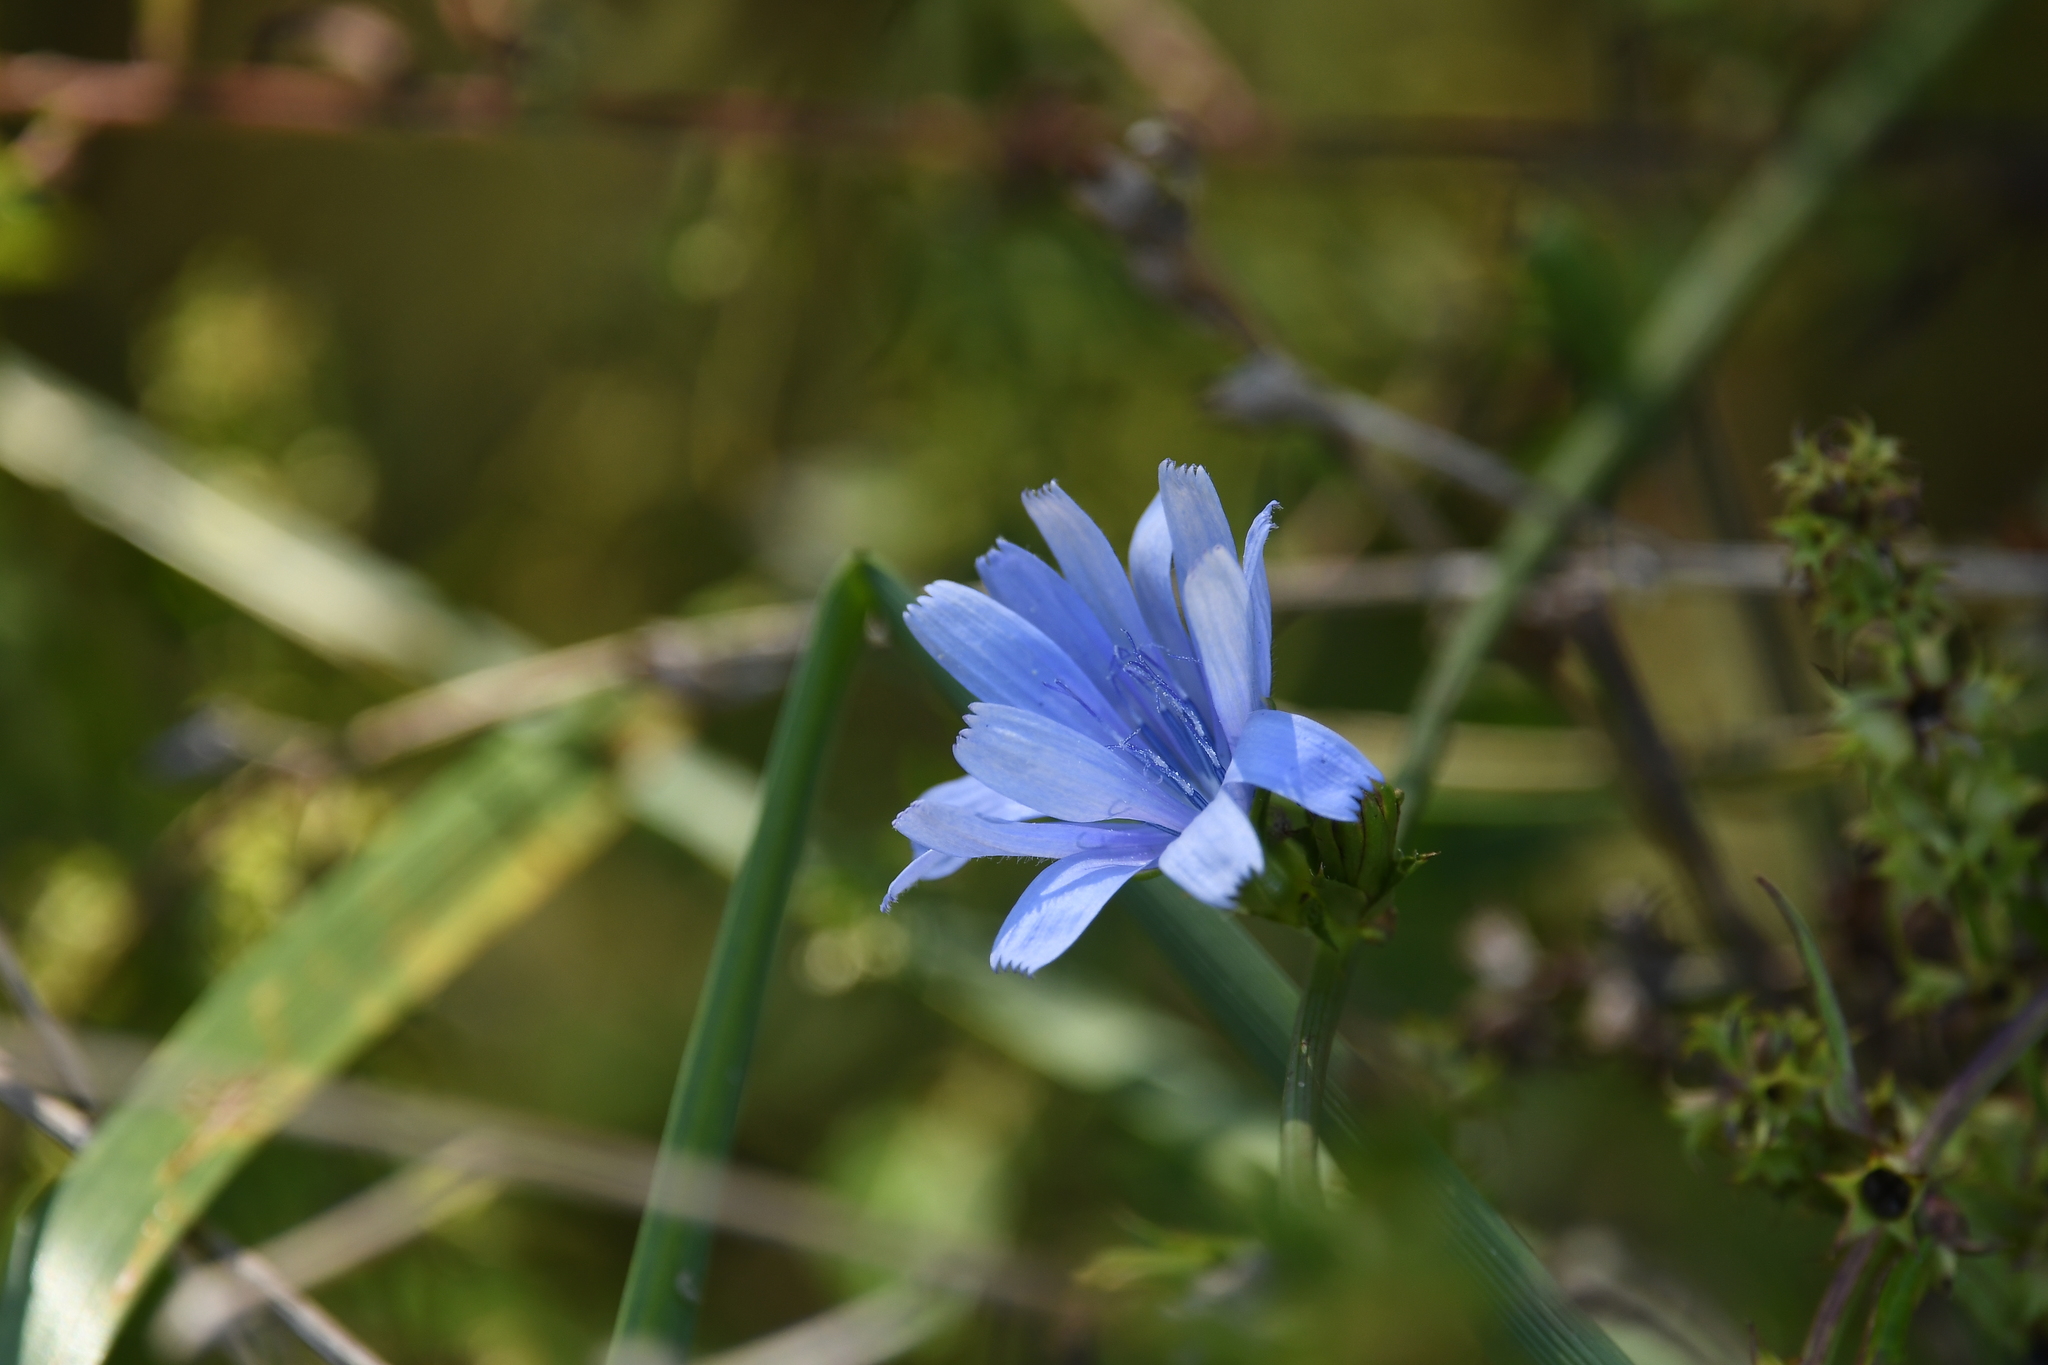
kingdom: Plantae
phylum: Tracheophyta
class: Magnoliopsida
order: Asterales
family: Asteraceae
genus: Cichorium
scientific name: Cichorium intybus
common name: Chicory
